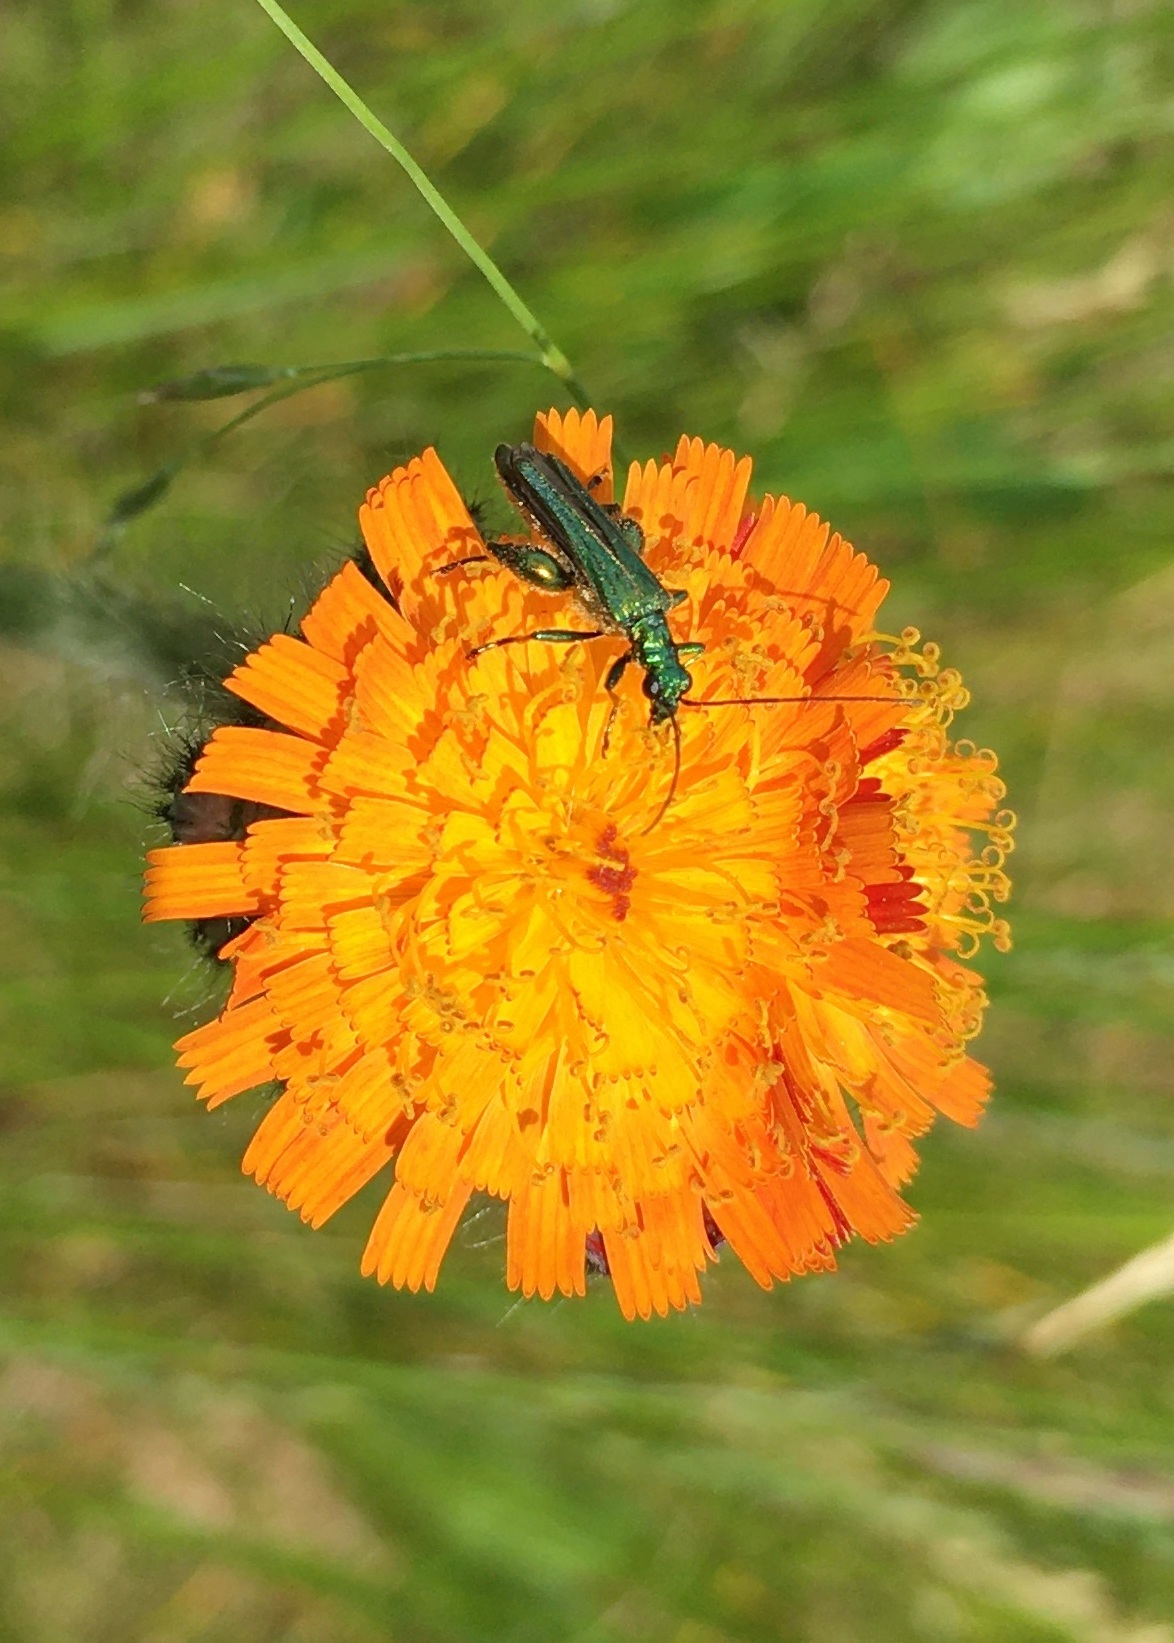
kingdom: Animalia
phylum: Arthropoda
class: Insecta
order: Coleoptera
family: Oedemeridae
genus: Oedemera
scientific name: Oedemera nobilis
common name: Swollen-thighed beetle
